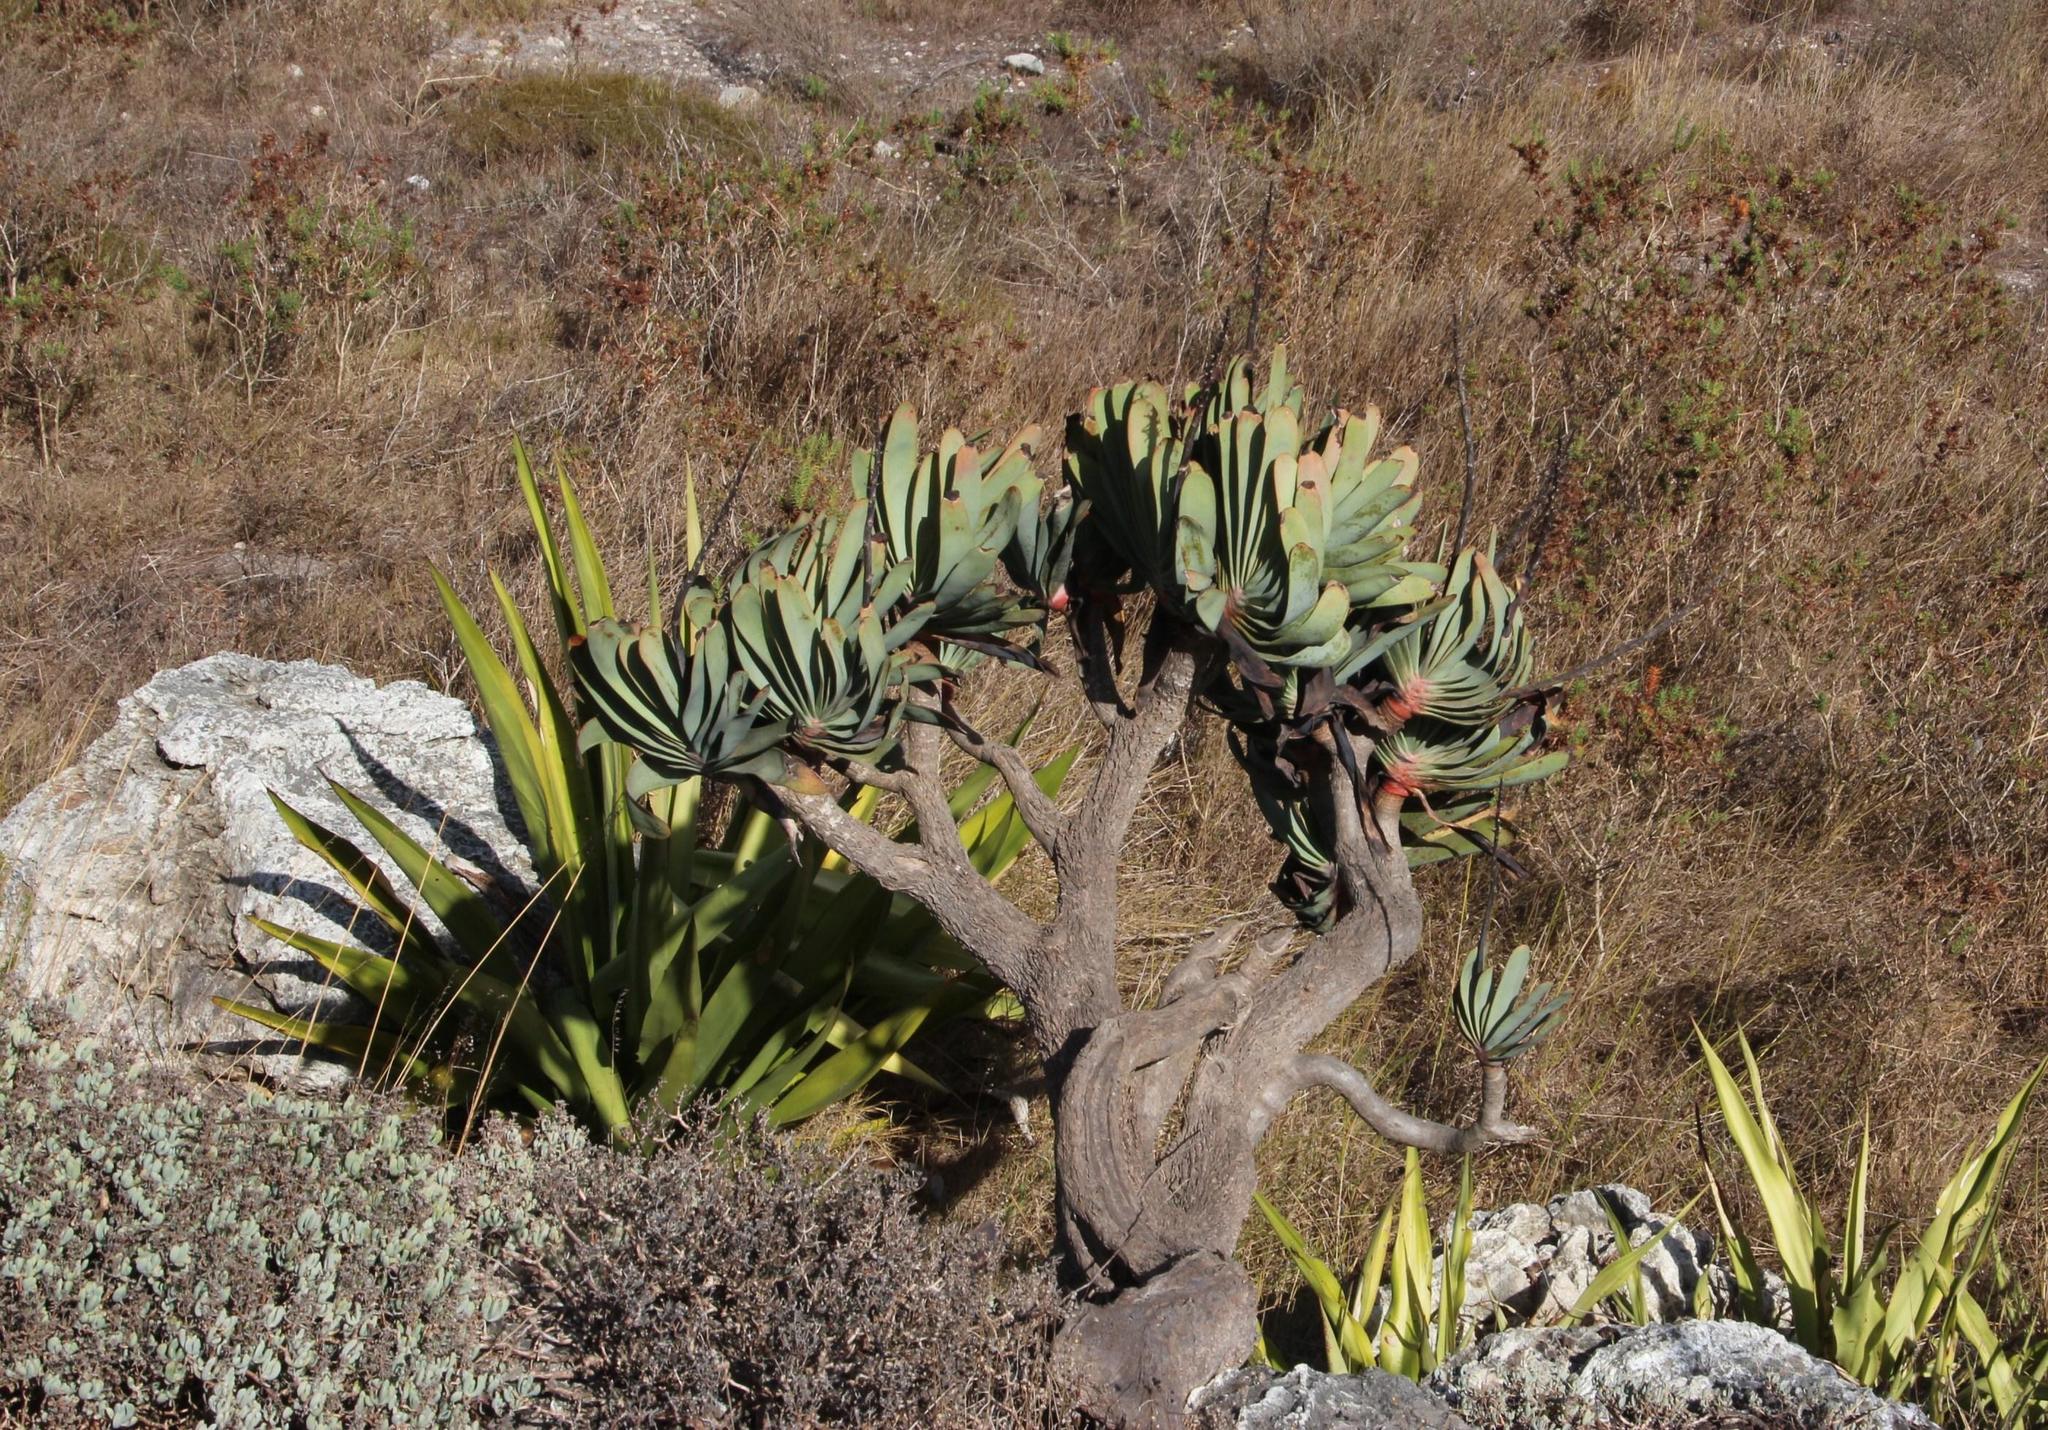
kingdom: Plantae
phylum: Tracheophyta
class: Liliopsida
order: Asparagales
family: Asphodelaceae
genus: Kumara
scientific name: Kumara plicatilis
